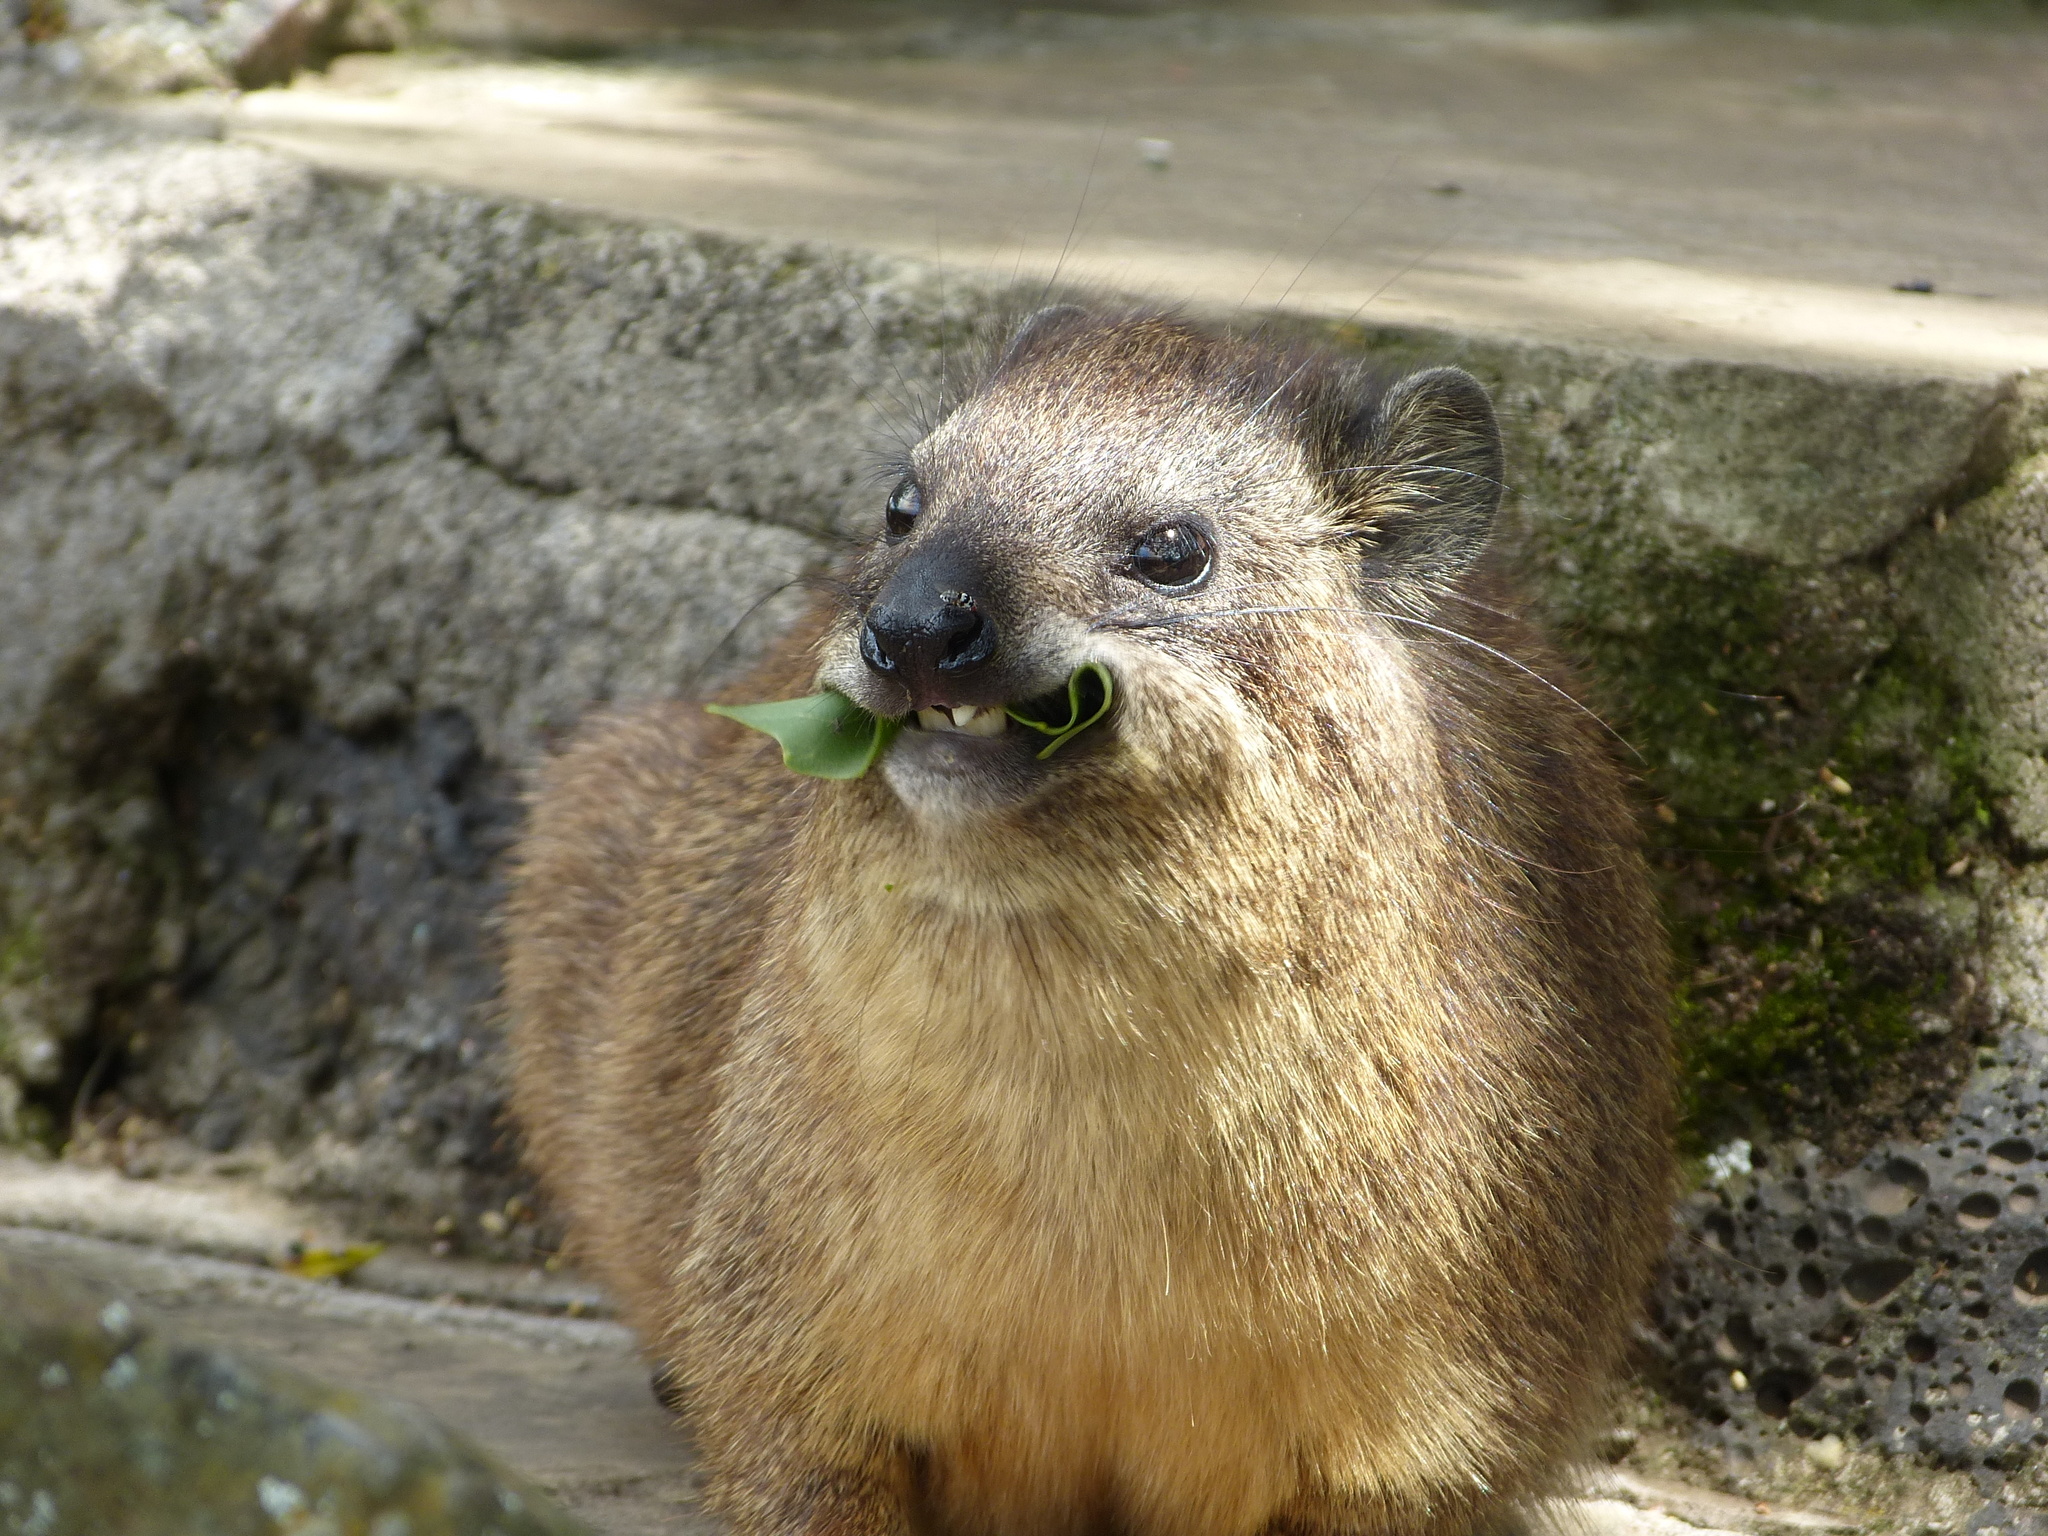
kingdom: Animalia
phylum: Chordata
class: Mammalia
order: Hyracoidea
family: Procaviidae
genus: Procavia
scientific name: Procavia capensis
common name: Rock hyrax
